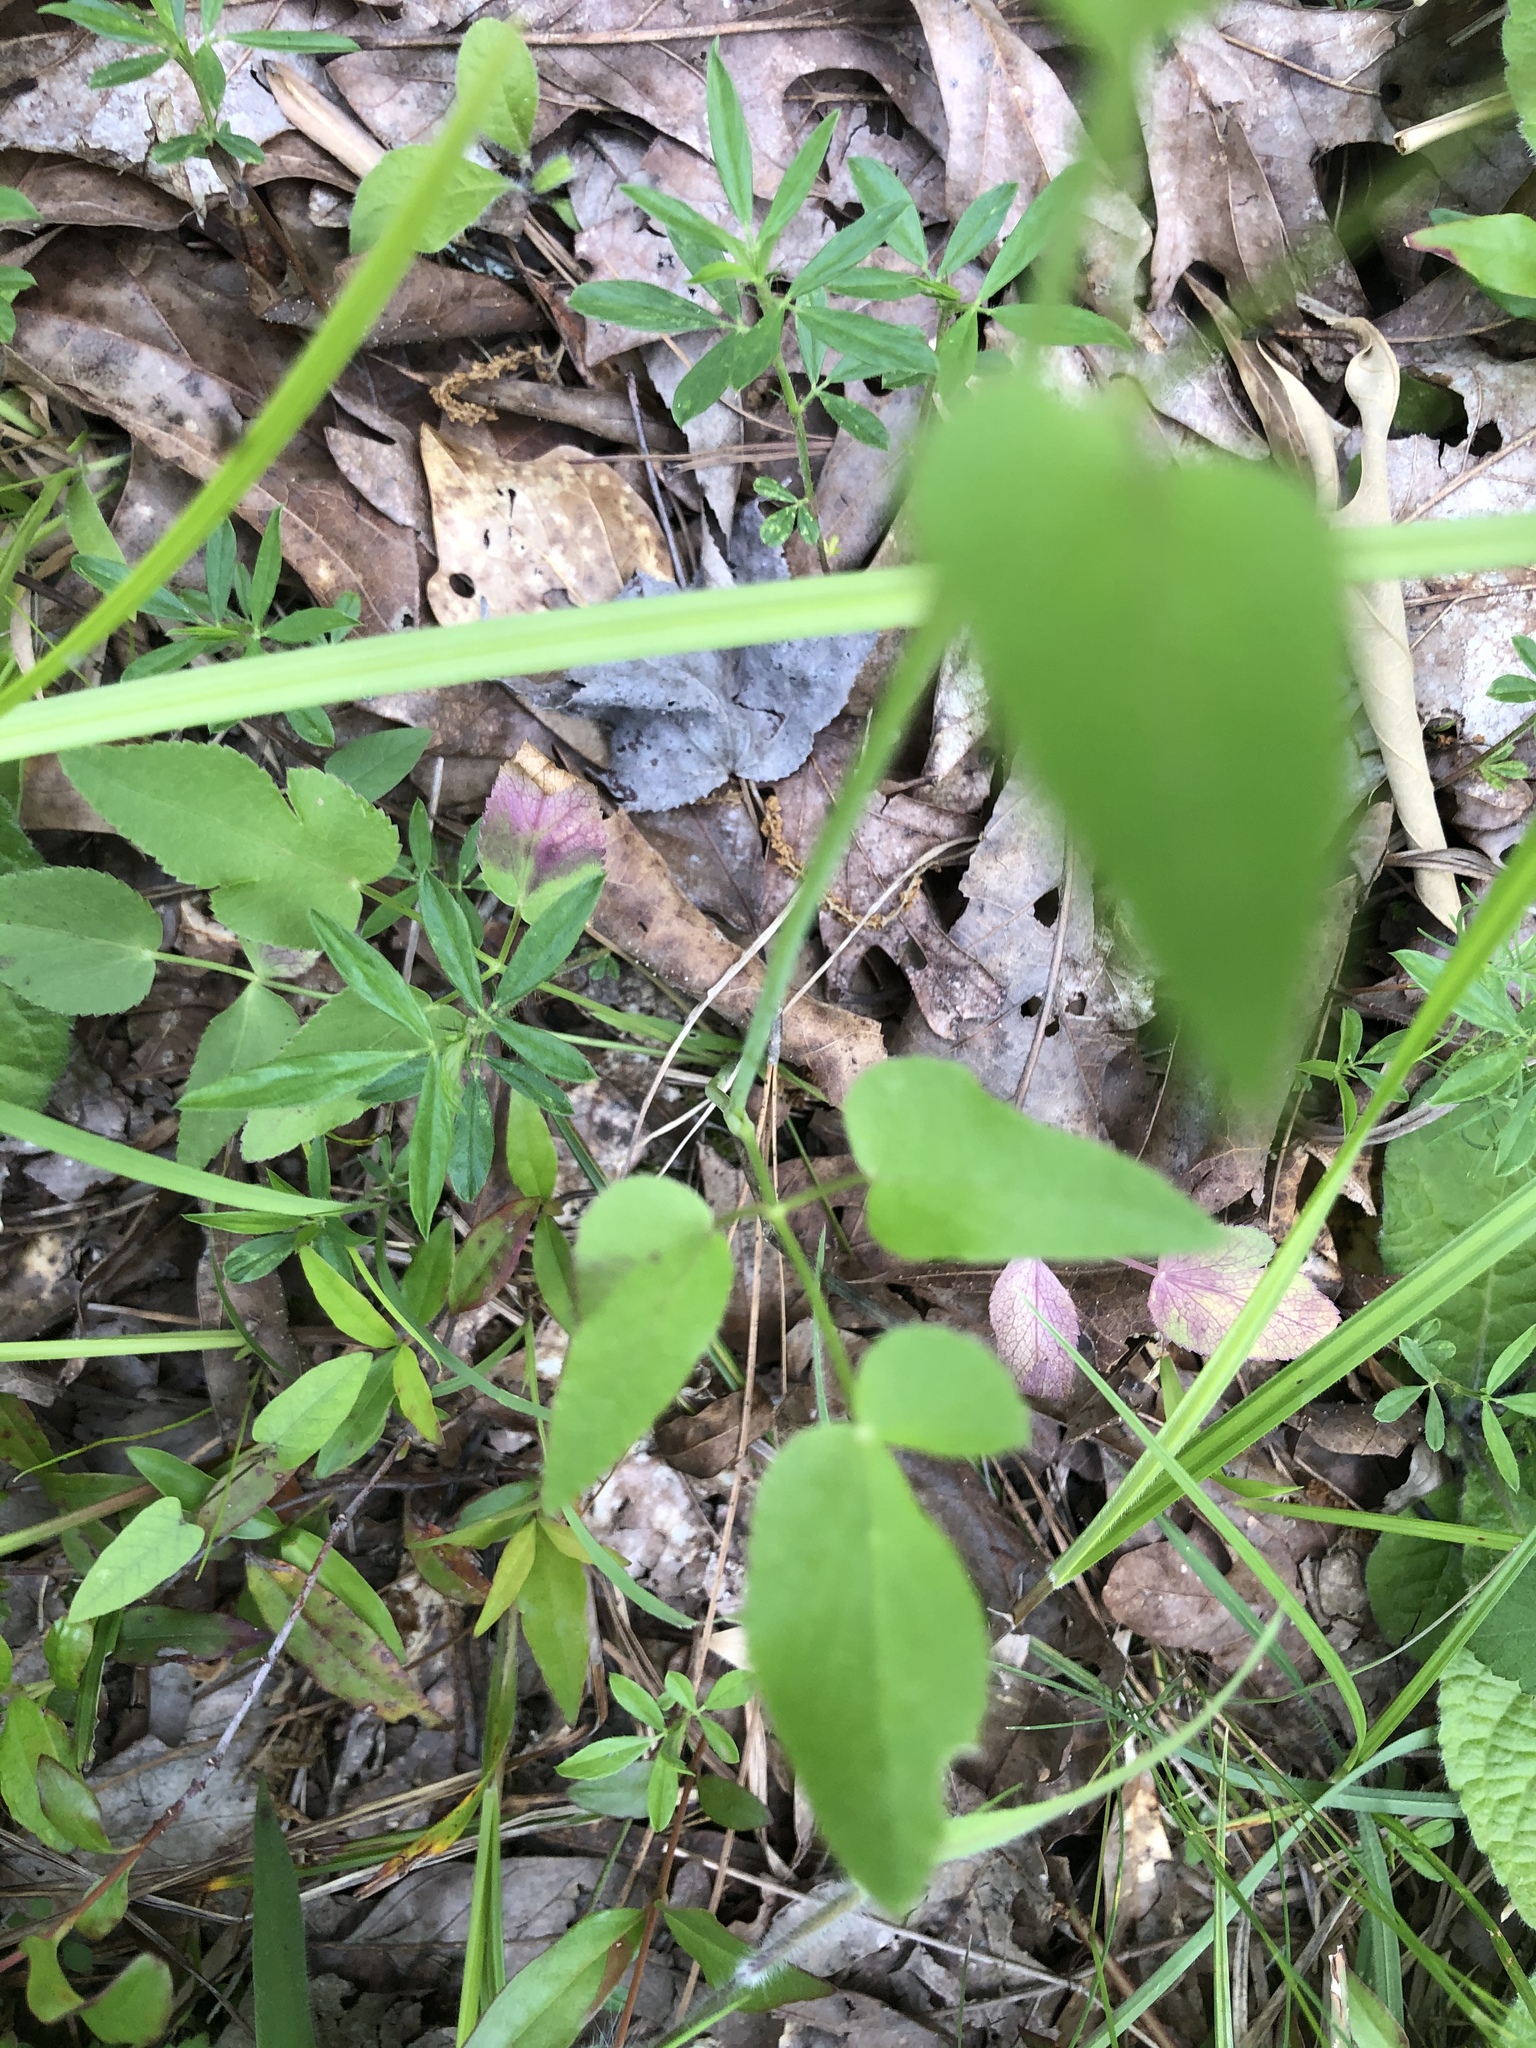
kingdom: Plantae
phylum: Tracheophyta
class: Magnoliopsida
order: Apiales
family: Apiaceae
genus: Thaspium
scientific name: Thaspium trifoliatum
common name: Purple meadow-parsnip
